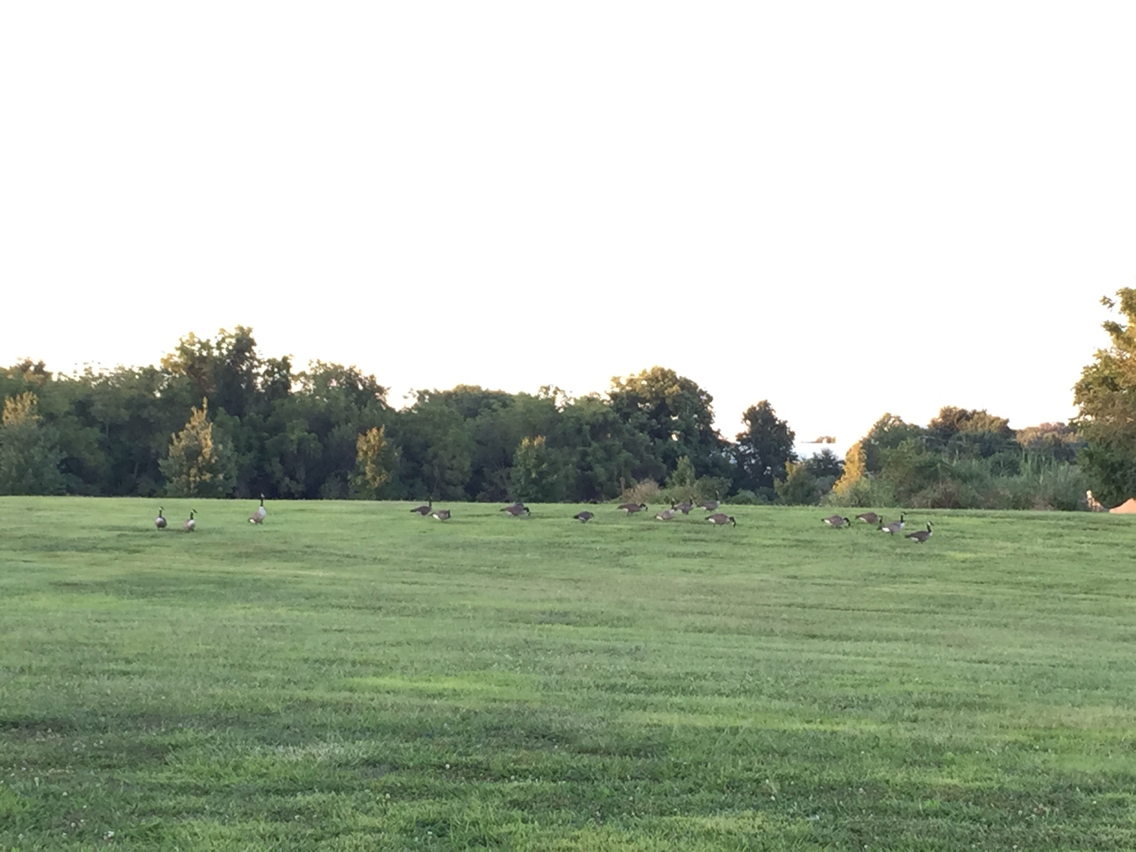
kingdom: Animalia
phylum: Chordata
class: Aves
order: Anseriformes
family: Anatidae
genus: Branta
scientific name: Branta canadensis
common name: Canada goose
